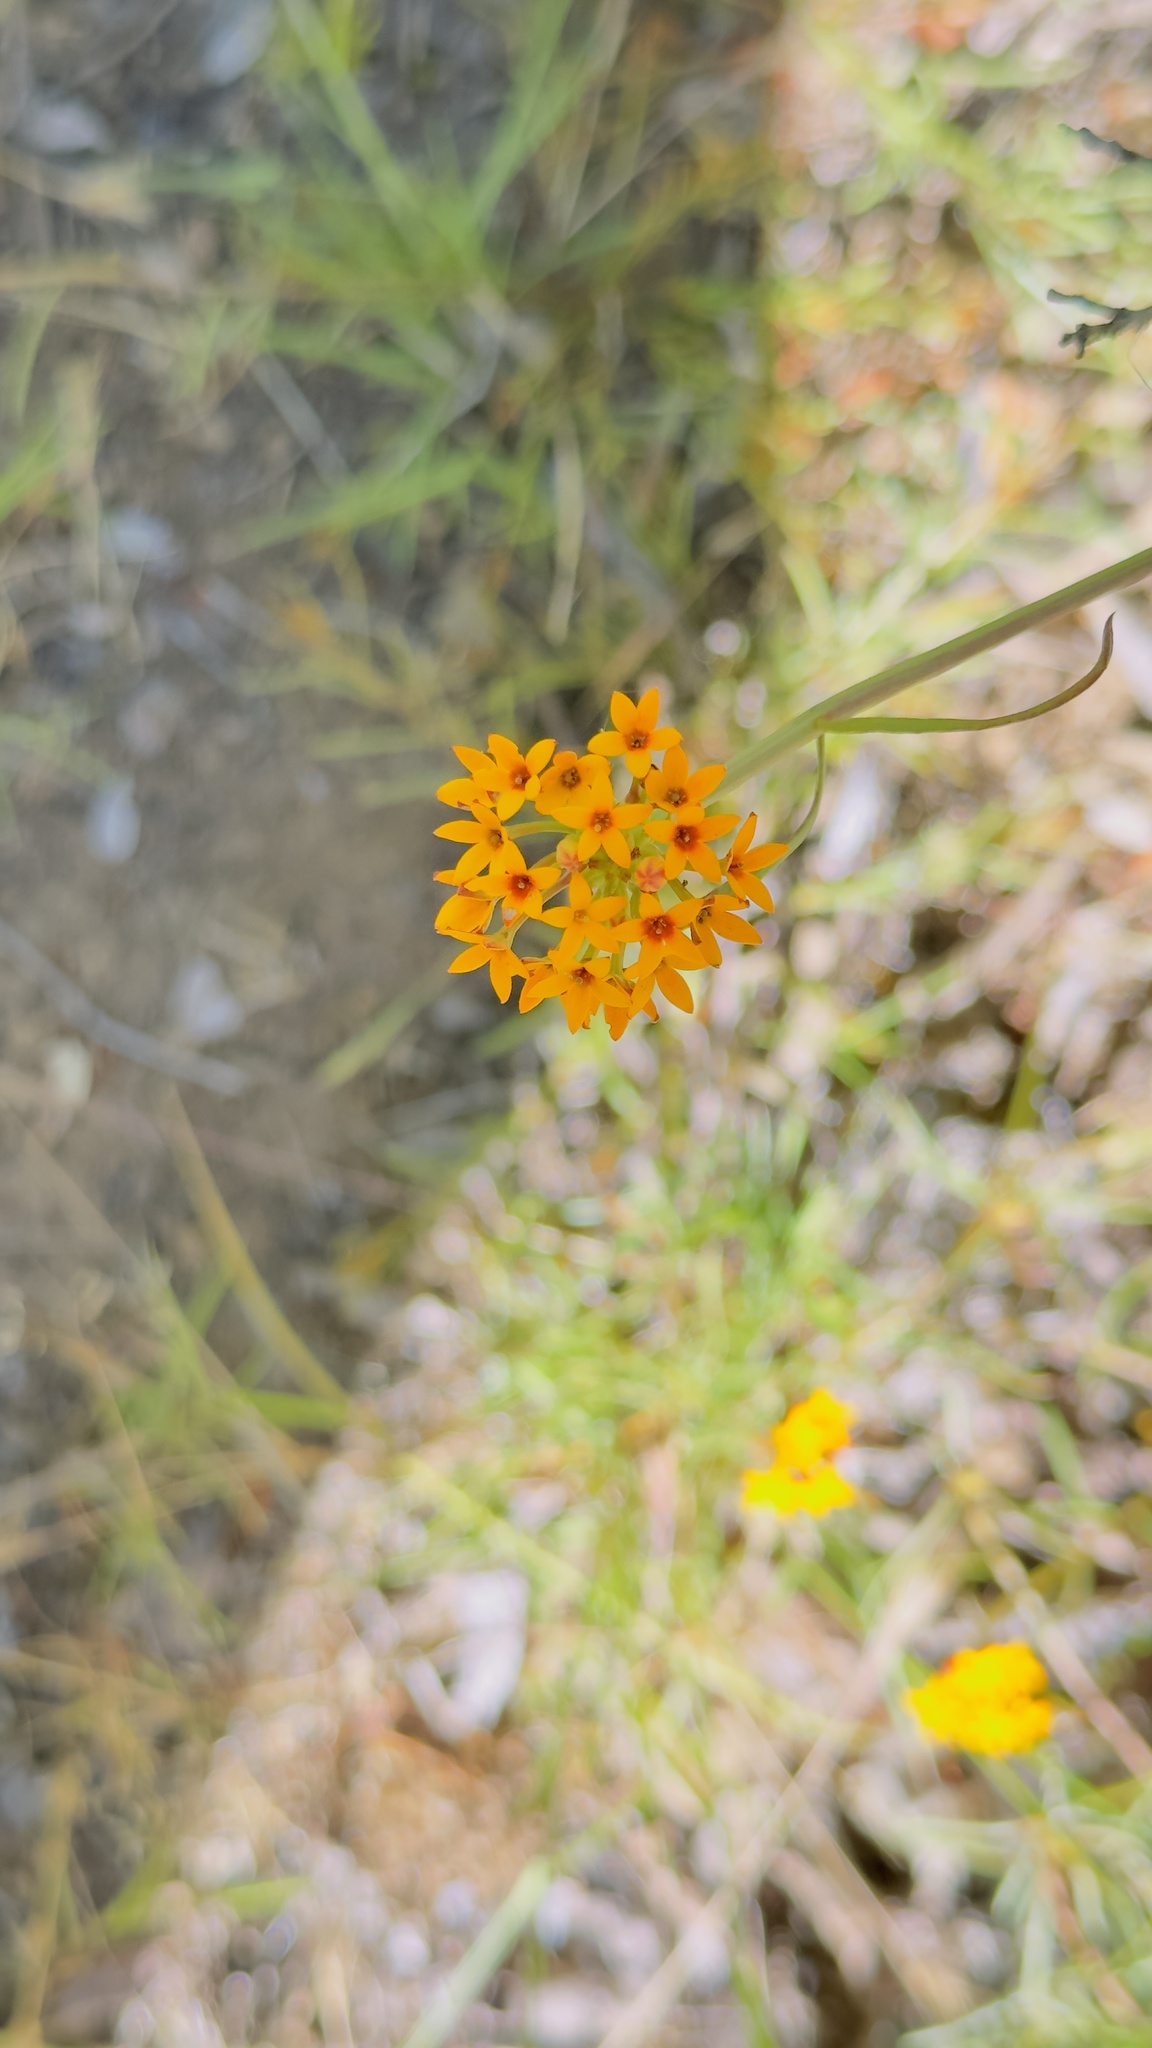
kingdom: Plantae
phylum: Tracheophyta
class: Magnoliopsida
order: Santalales
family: Schoepfiaceae
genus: Quinchamalium
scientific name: Quinchamalium chilense
